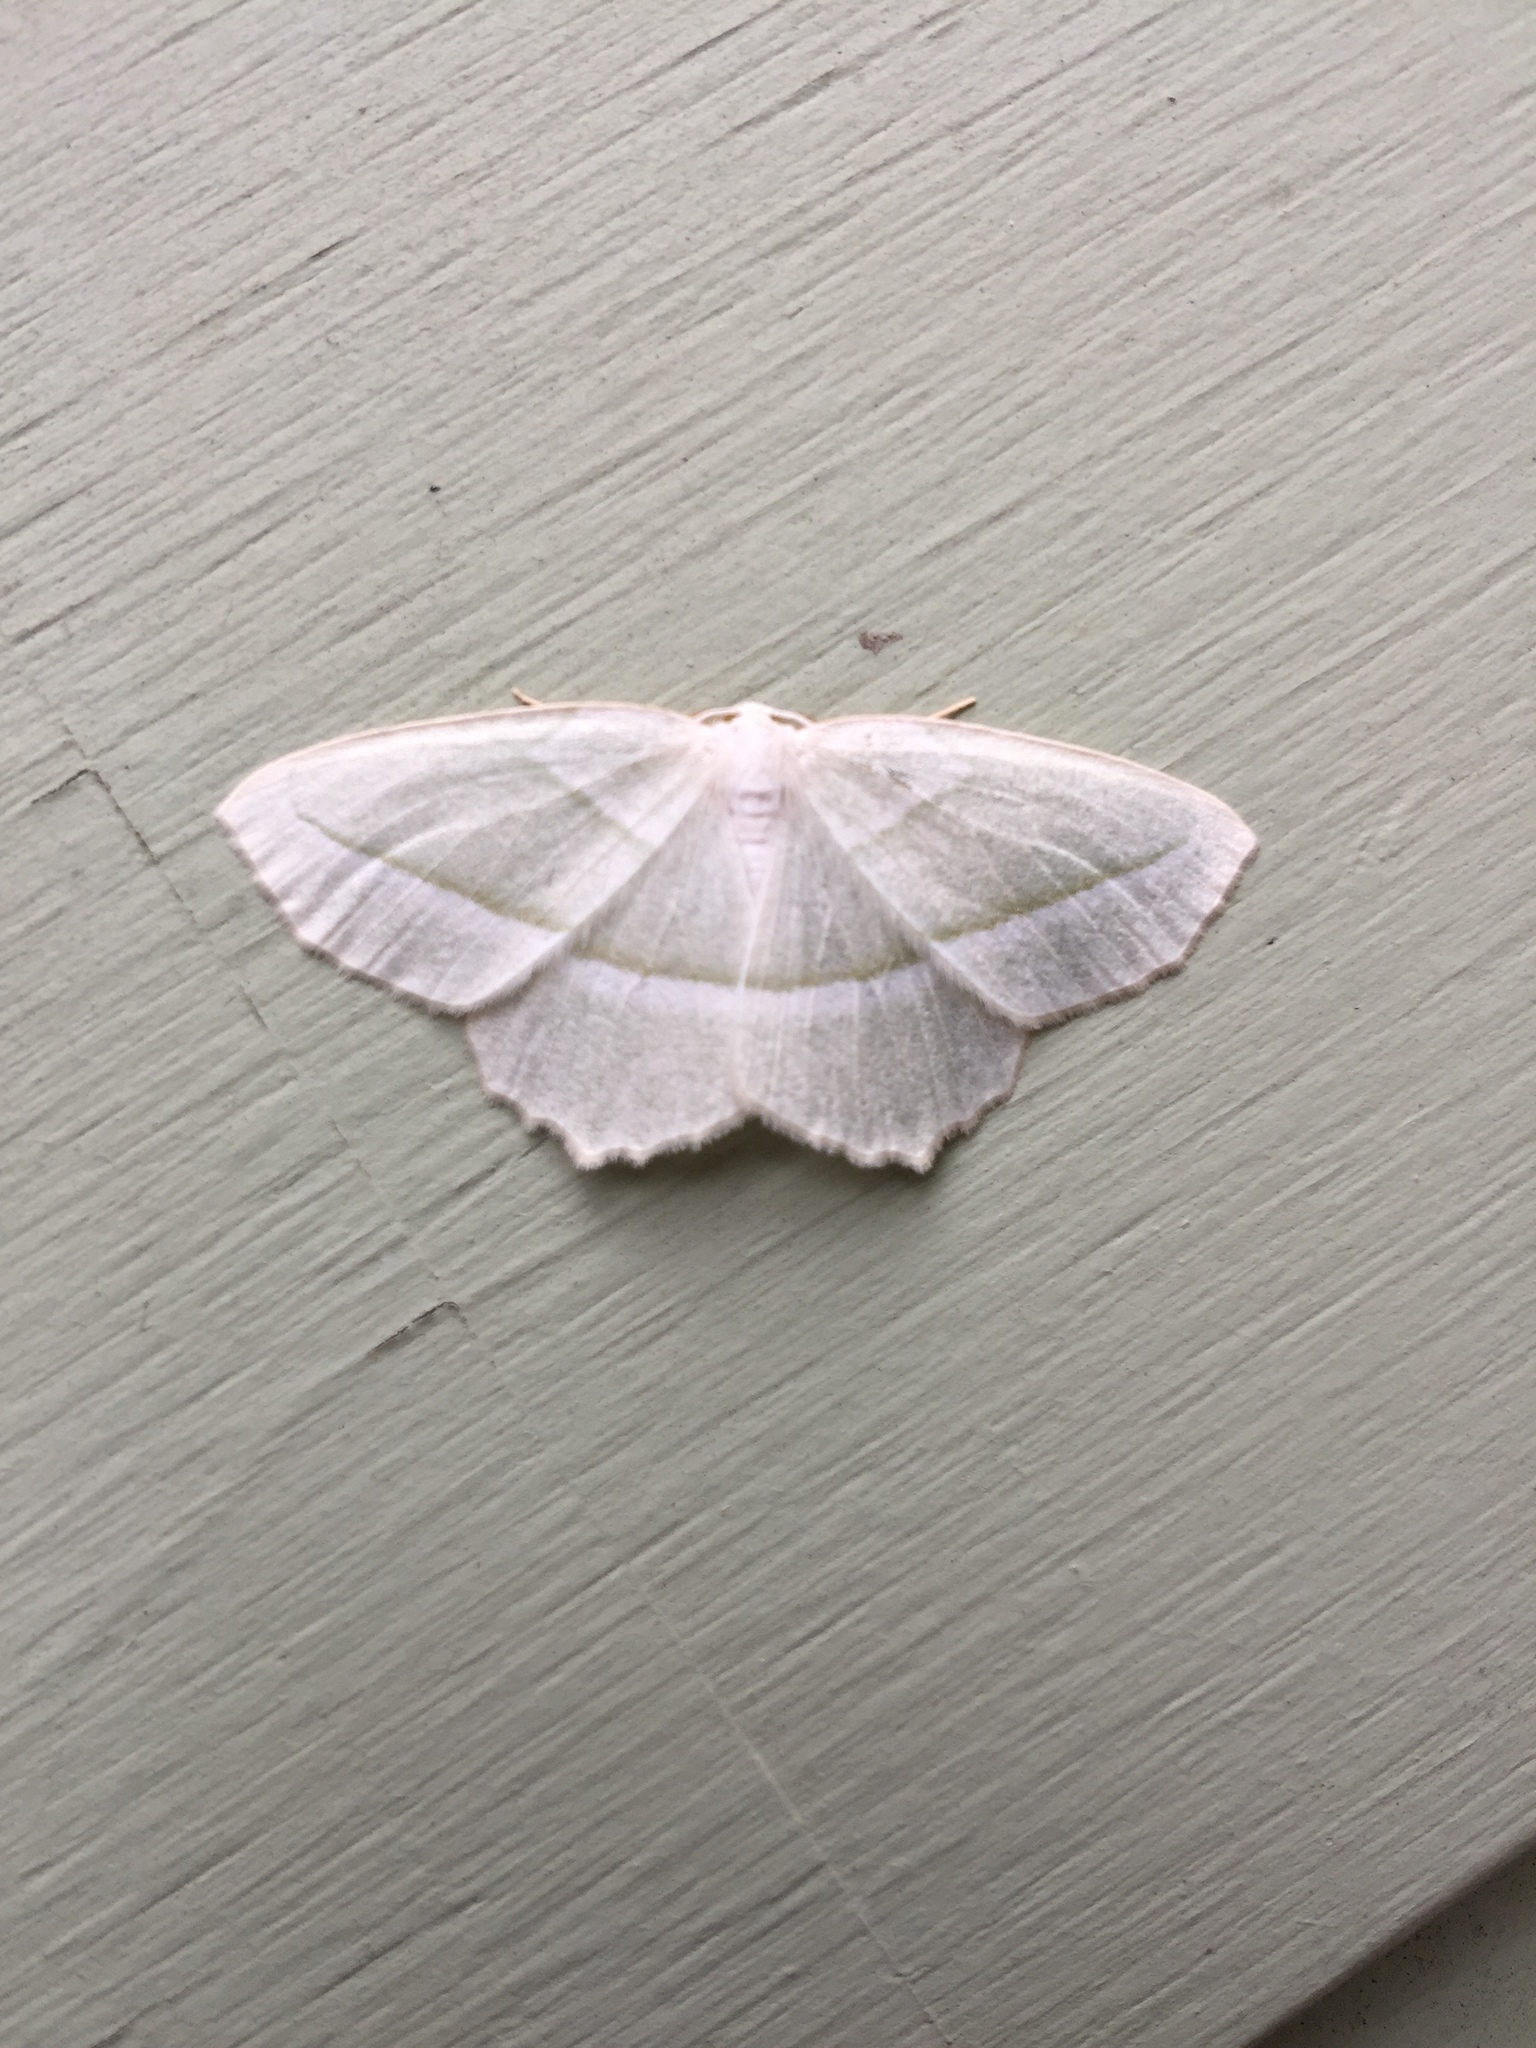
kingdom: Animalia
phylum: Arthropoda
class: Insecta
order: Lepidoptera
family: Geometridae
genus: Campaea
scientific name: Campaea perlata
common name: Fringed looper
